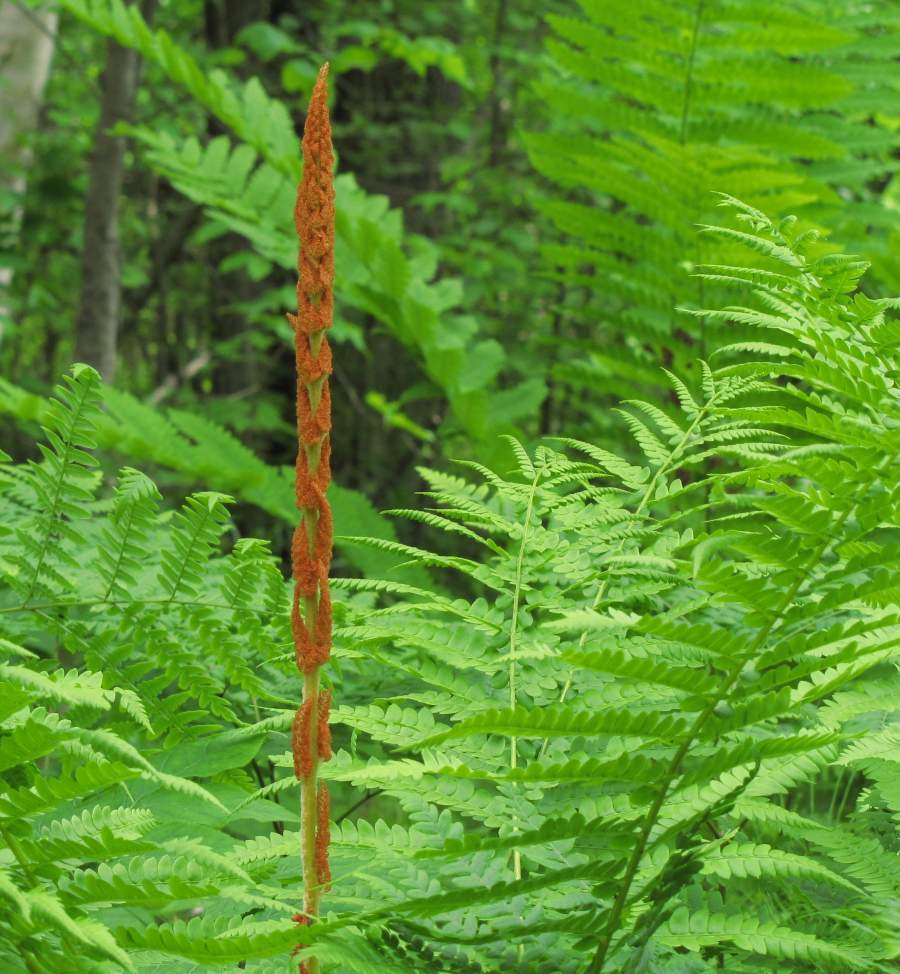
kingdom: Plantae
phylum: Tracheophyta
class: Polypodiopsida
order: Osmundales
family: Osmundaceae
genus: Osmundastrum
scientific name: Osmundastrum cinnamomeum
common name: Cinnamon fern
